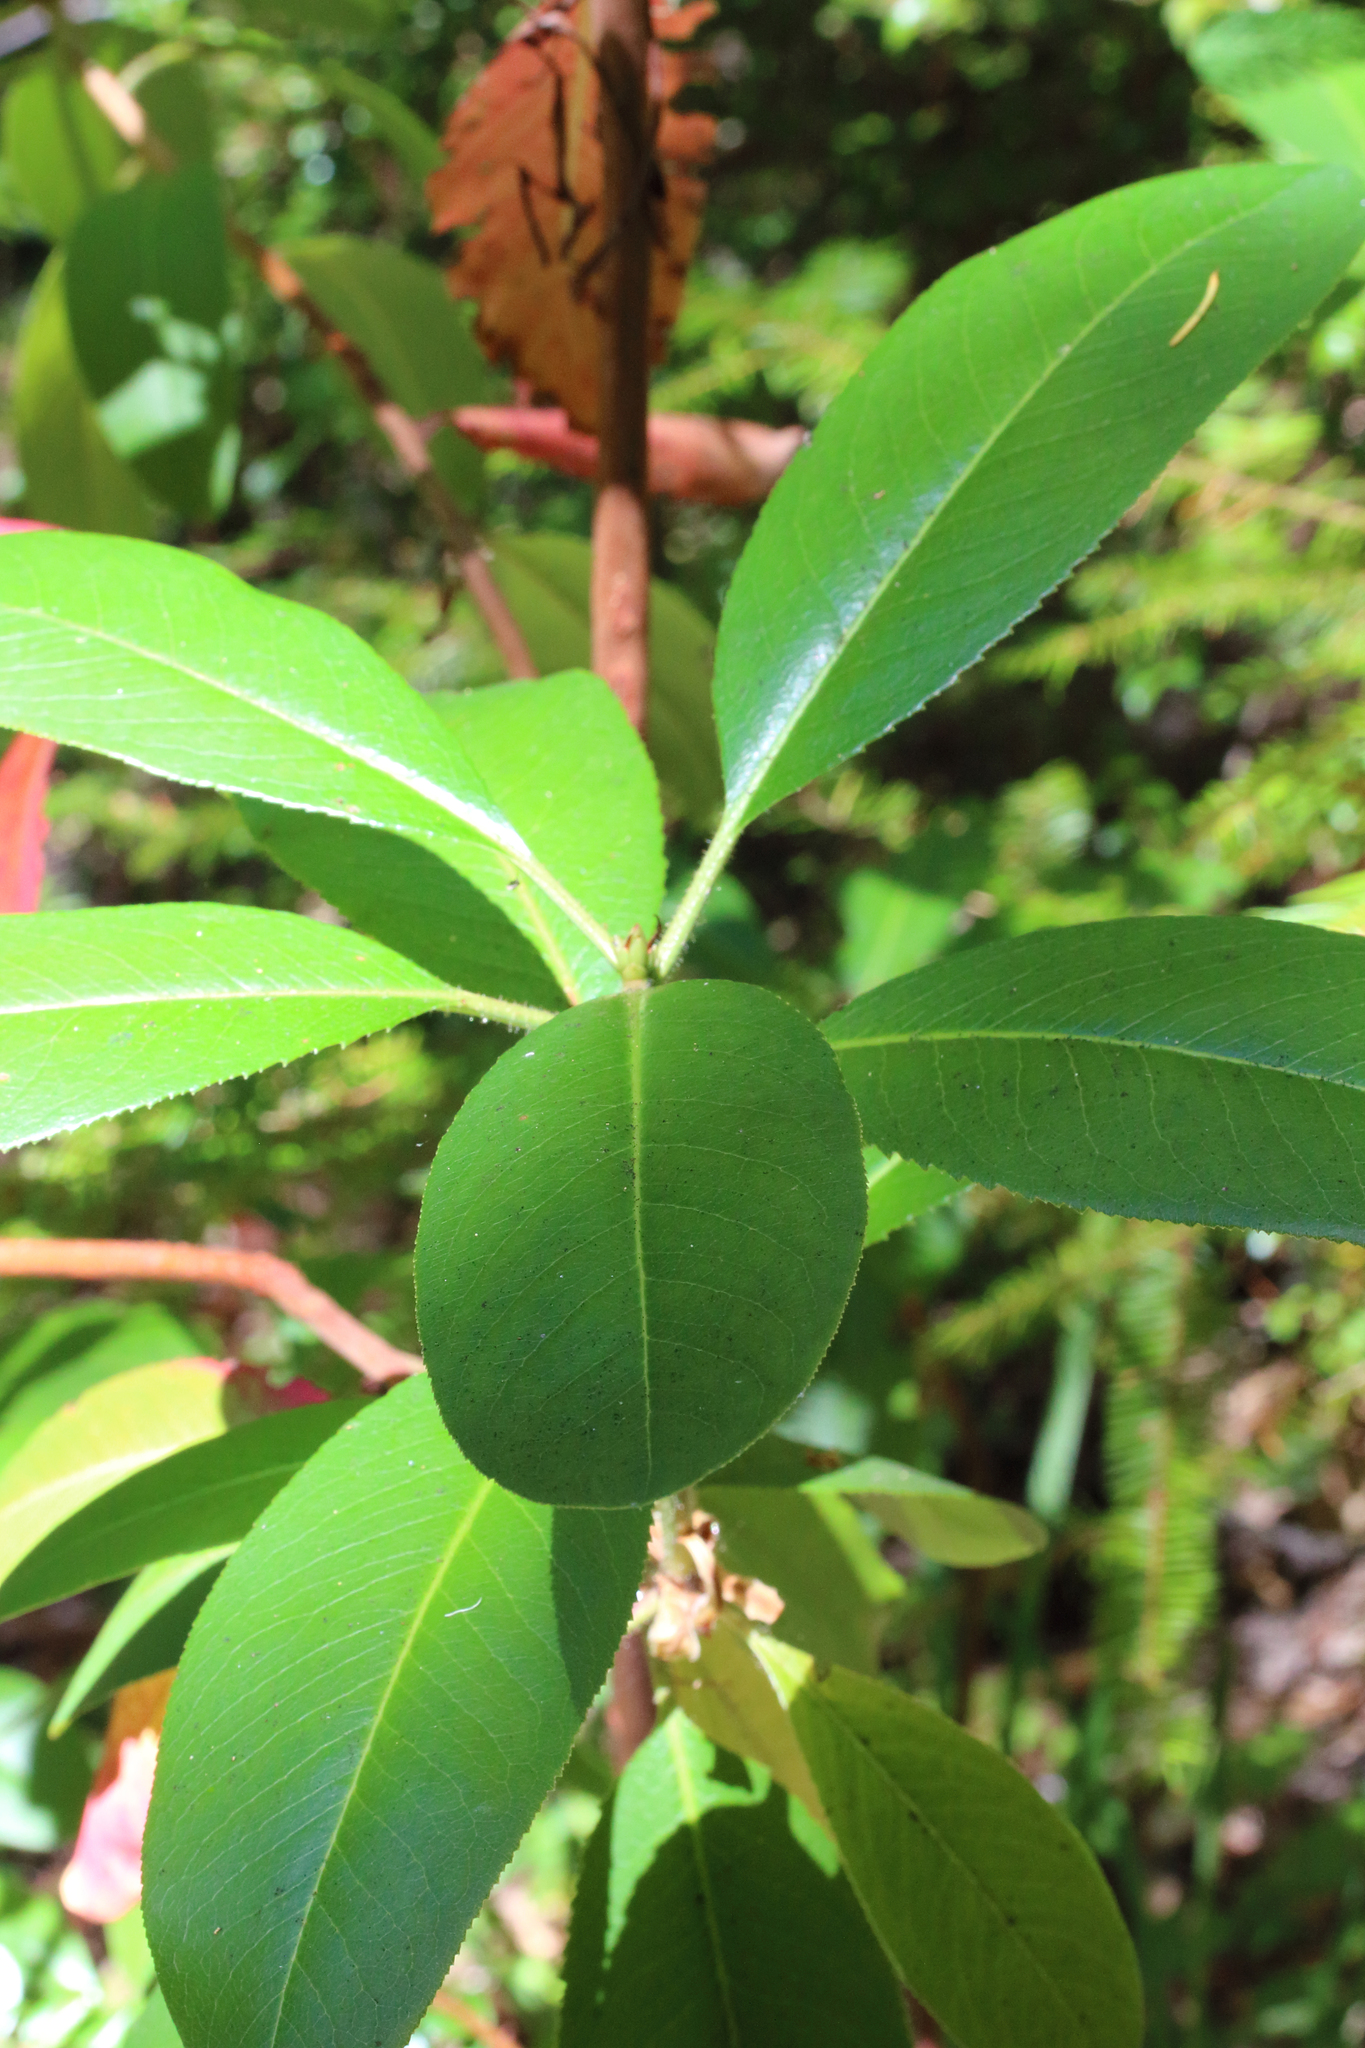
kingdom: Plantae
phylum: Tracheophyta
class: Magnoliopsida
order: Ericales
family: Ericaceae
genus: Arbutus
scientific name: Arbutus menziesii
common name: Pacific madrone
